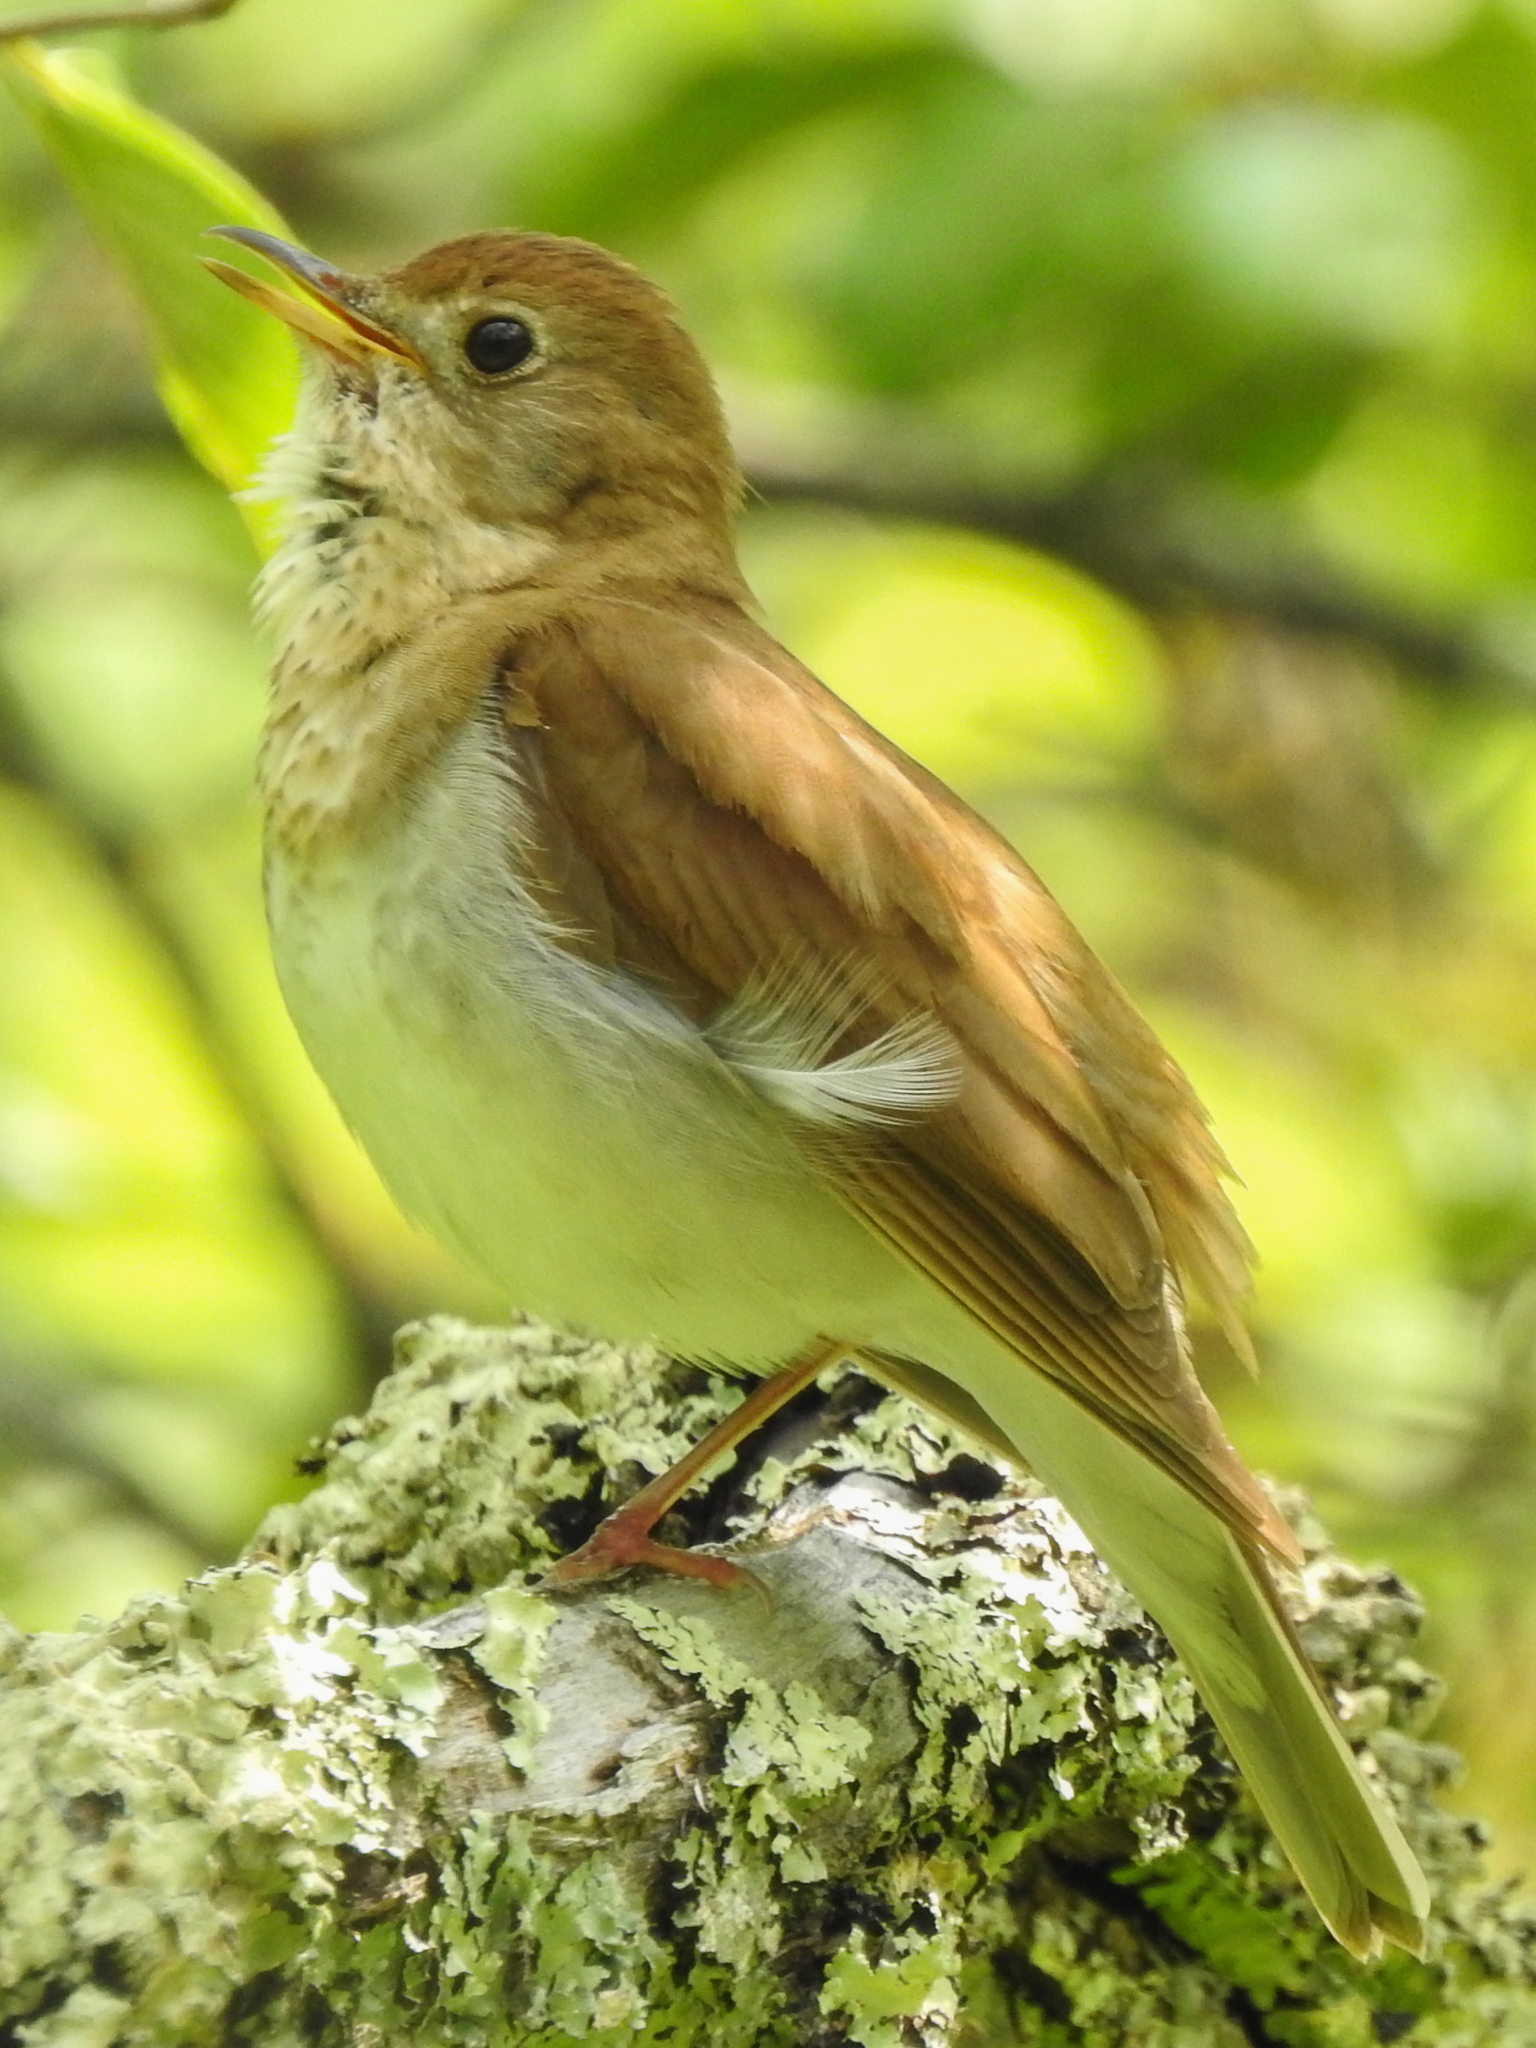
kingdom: Animalia
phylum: Chordata
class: Aves
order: Passeriformes
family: Turdidae
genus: Catharus
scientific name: Catharus fuscescens
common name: Veery
